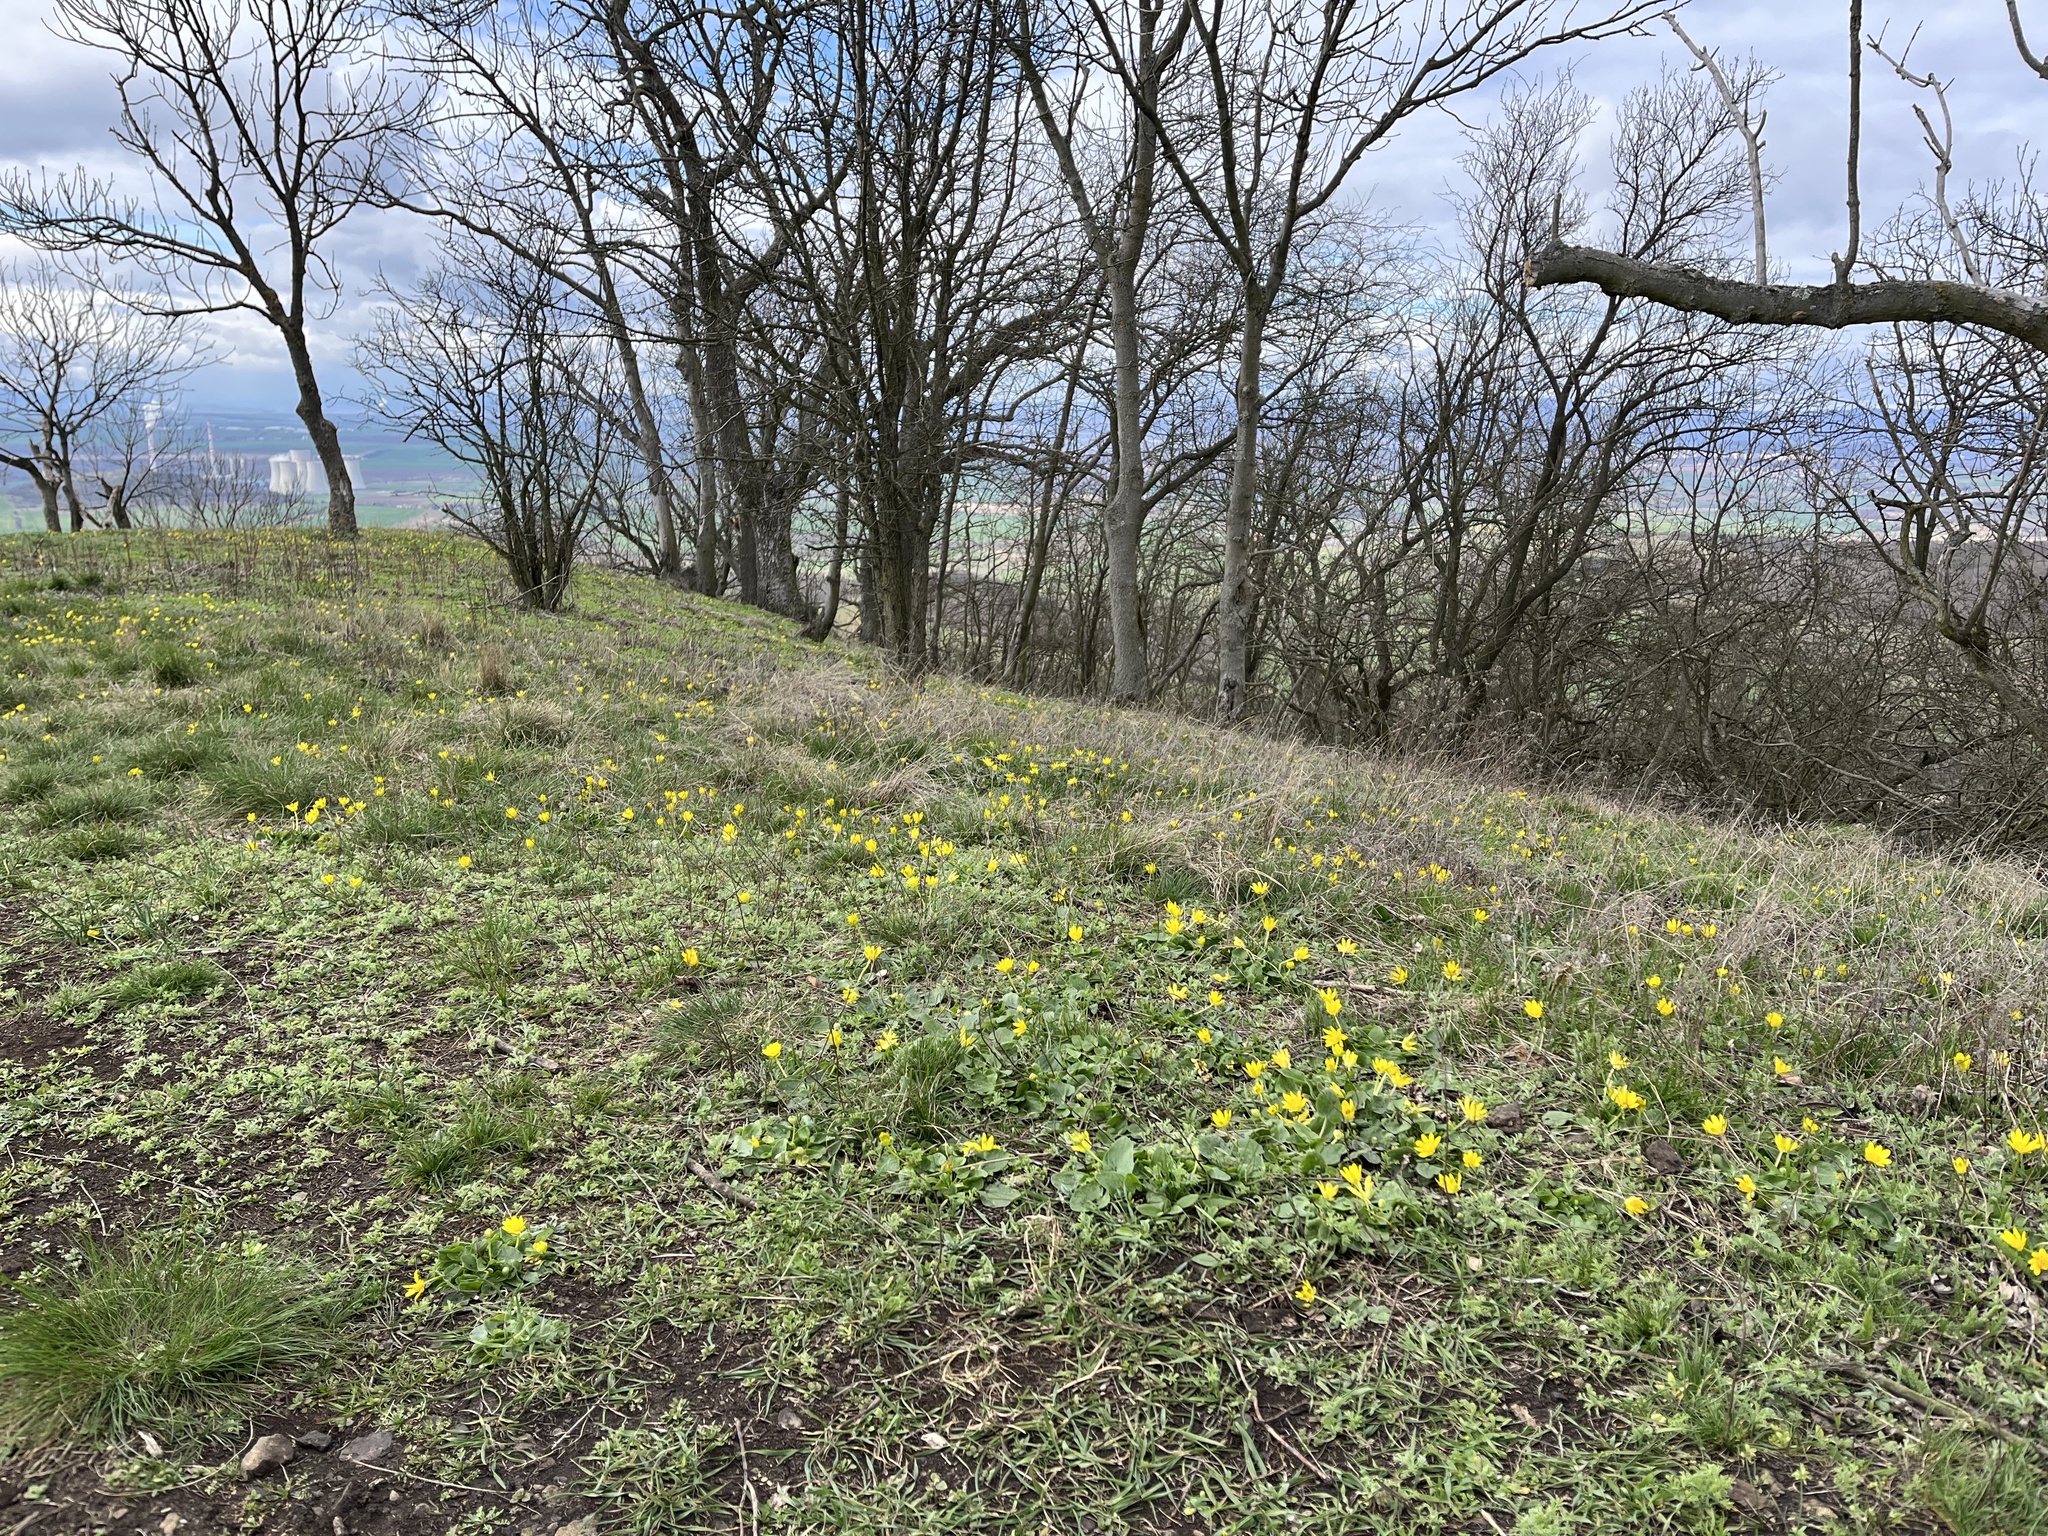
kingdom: Plantae
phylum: Tracheophyta
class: Magnoliopsida
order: Ranunculales
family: Ranunculaceae
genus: Ficaria
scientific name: Ficaria verna
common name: Lesser celandine
